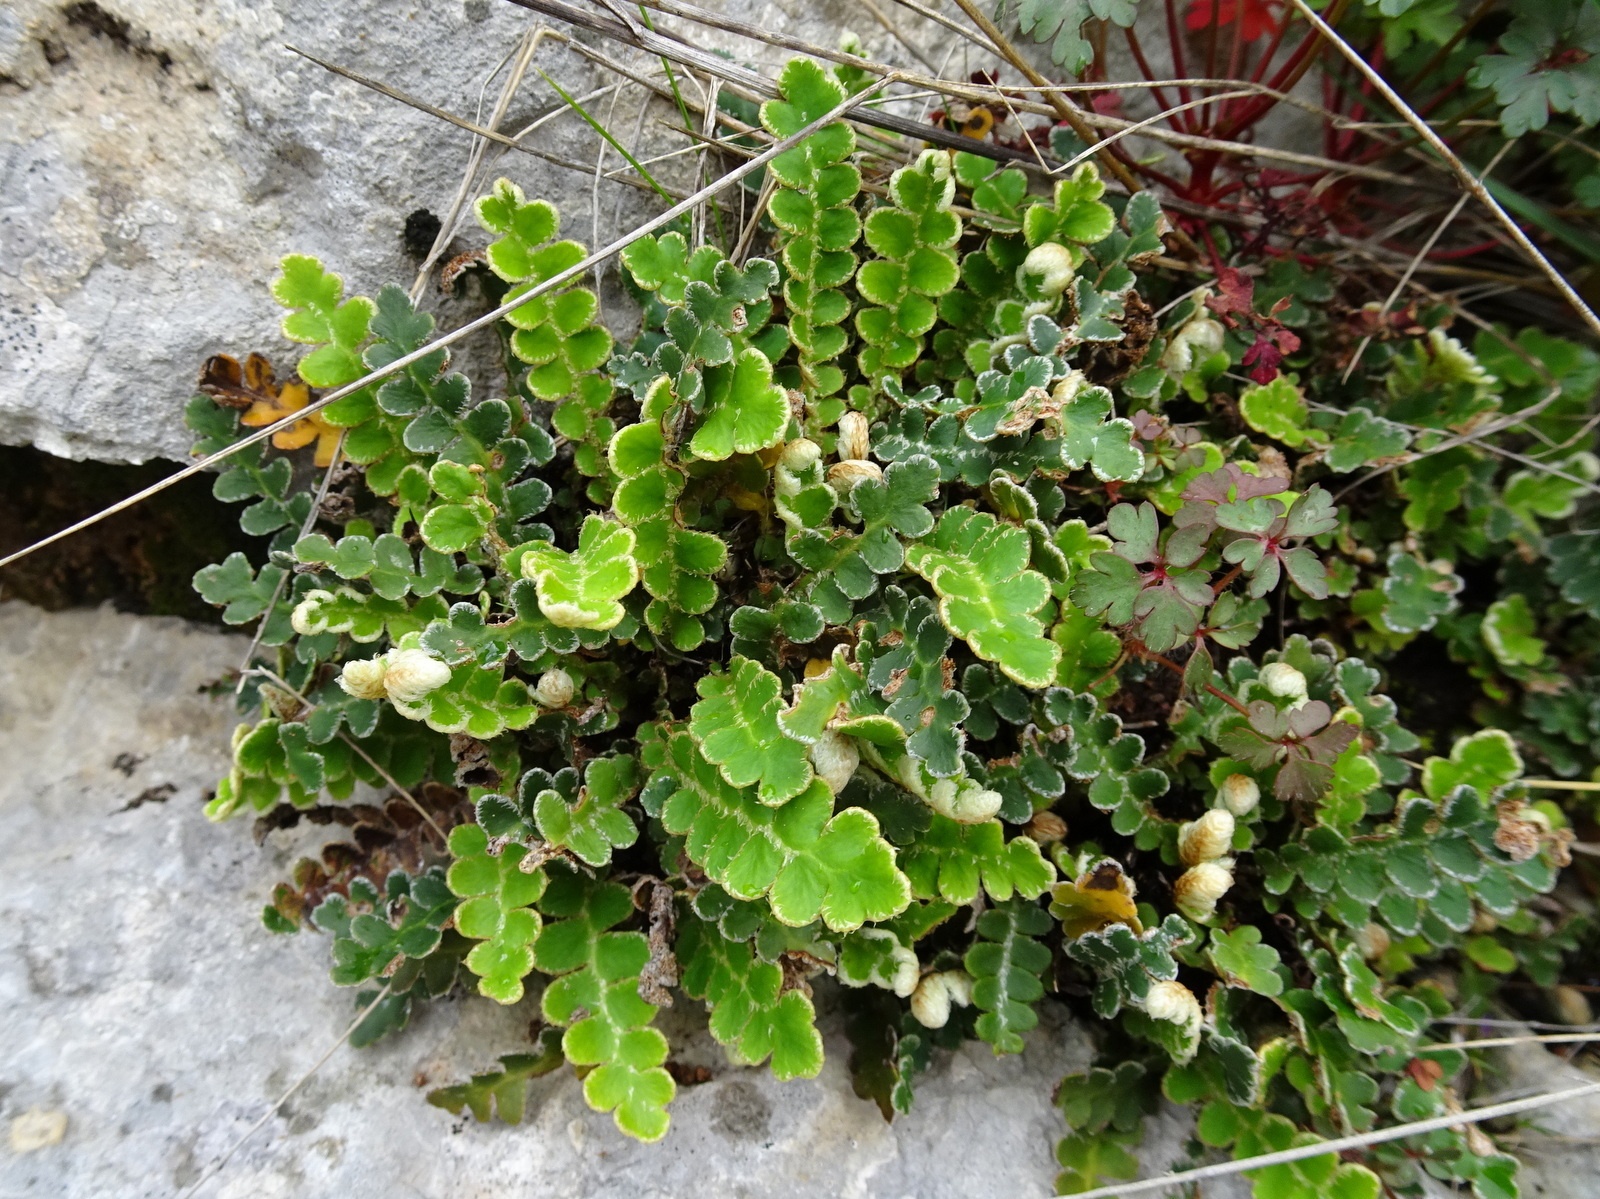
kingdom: Plantae
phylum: Tracheophyta
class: Polypodiopsida
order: Polypodiales
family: Aspleniaceae
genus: Asplenium
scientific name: Asplenium ceterach
